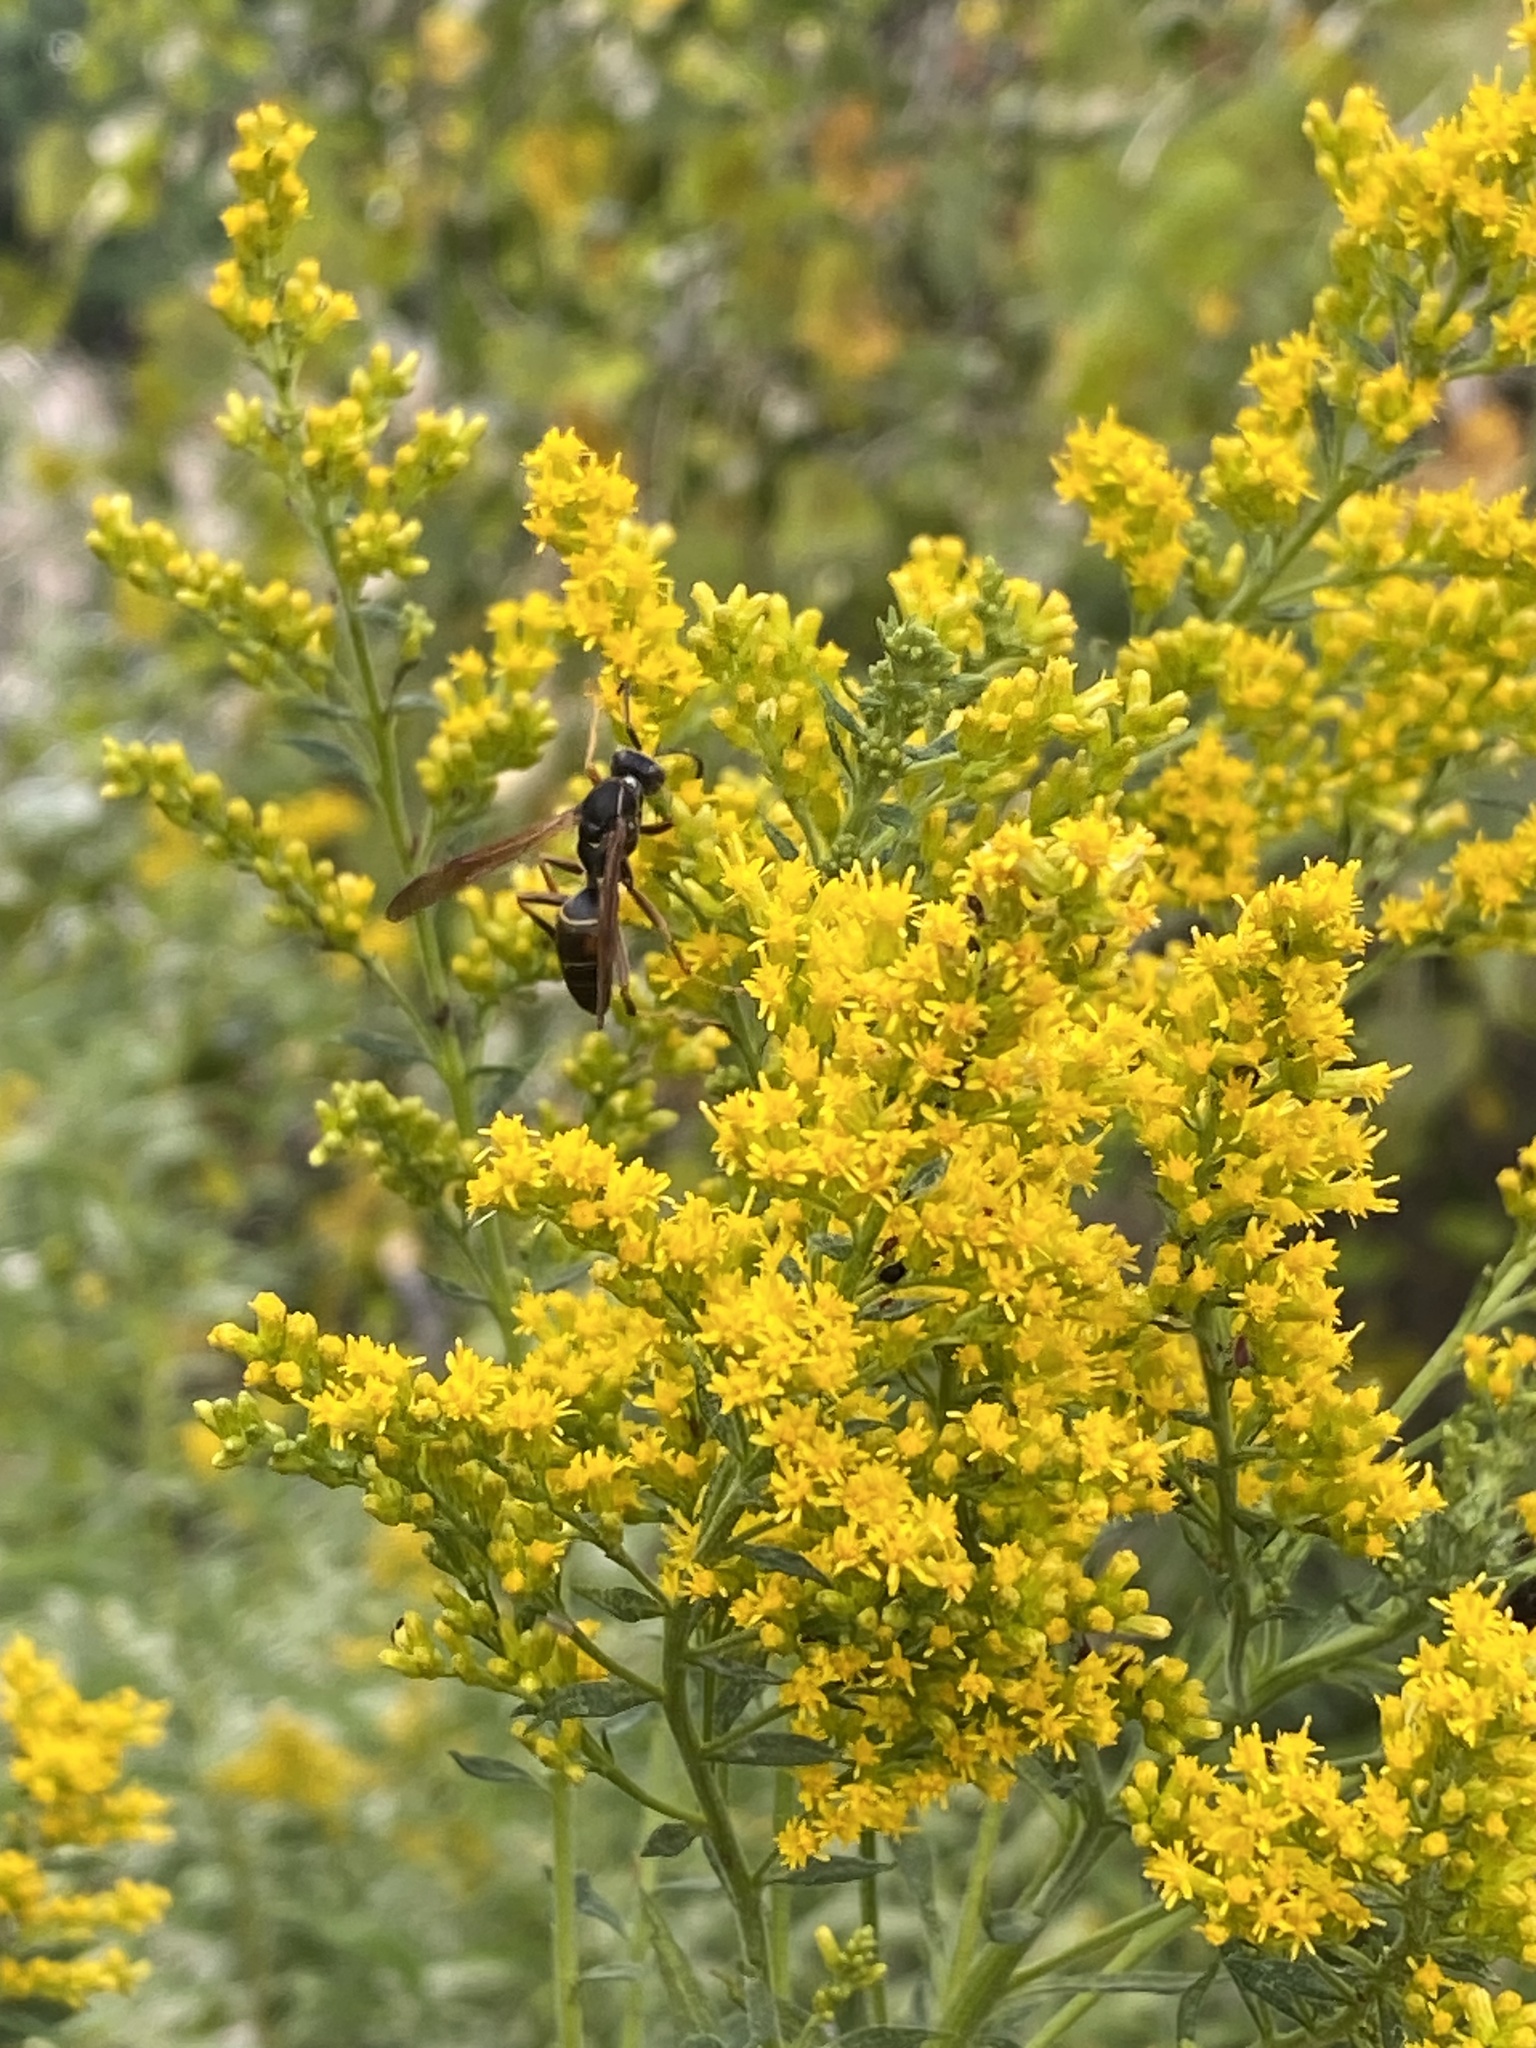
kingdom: Animalia
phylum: Arthropoda
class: Insecta
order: Hymenoptera
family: Eumenidae
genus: Polistes
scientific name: Polistes fuscatus
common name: Dark paper wasp
